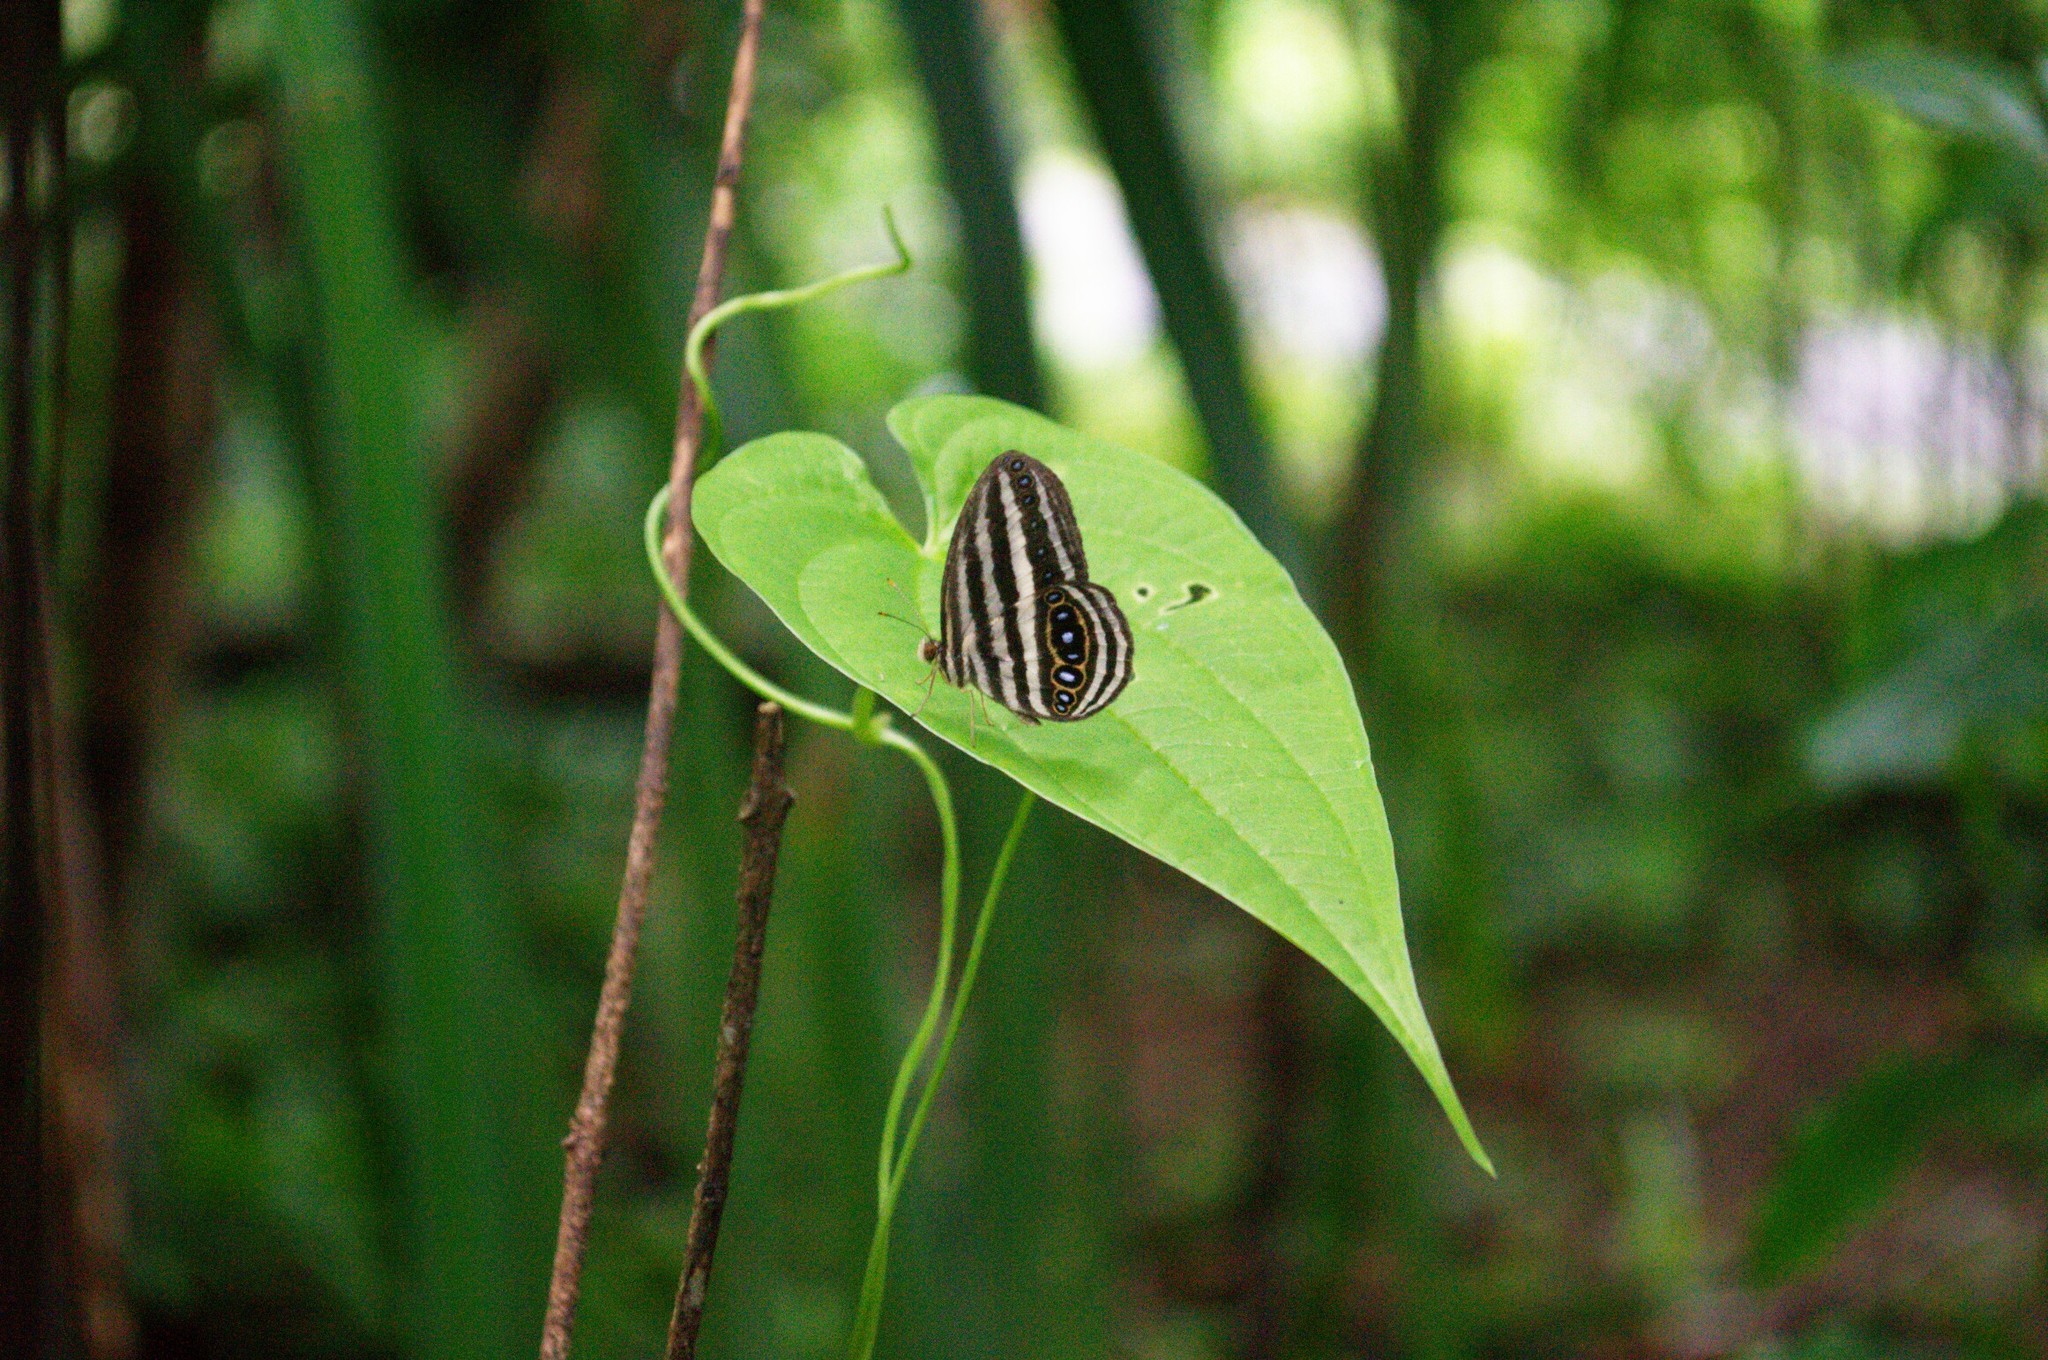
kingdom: Animalia
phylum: Arthropoda
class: Insecta
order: Lepidoptera
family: Nymphalidae
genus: Ragadia
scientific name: Ragadia crisilda
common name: White-striped ringlet
